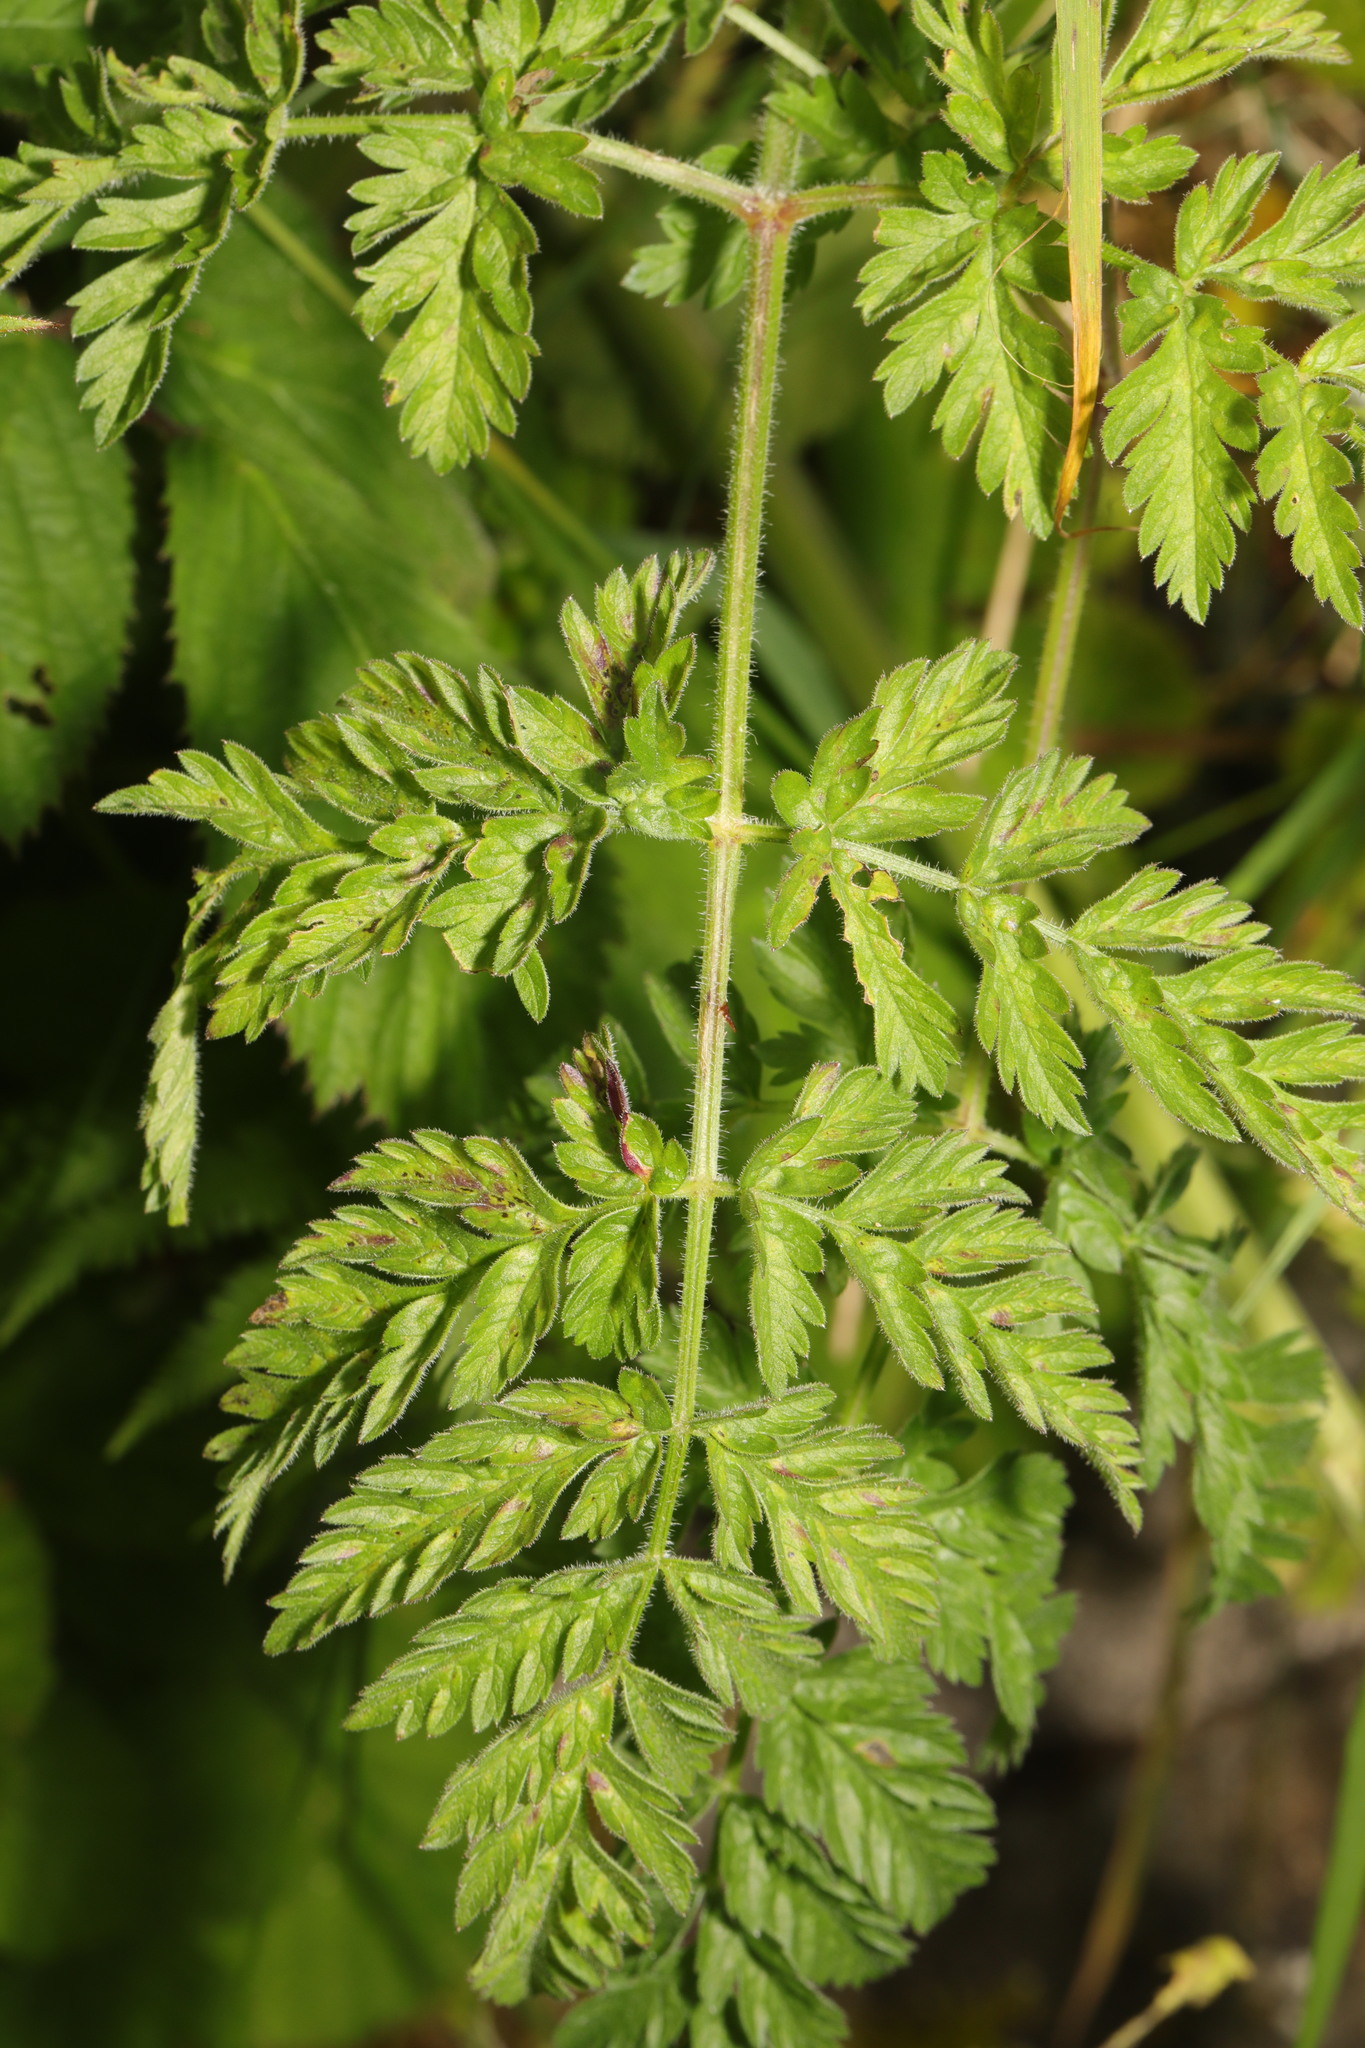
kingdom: Plantae
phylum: Tracheophyta
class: Magnoliopsida
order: Apiales
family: Apiaceae
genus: Anthriscus
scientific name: Anthriscus sylvestris
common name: Cow parsley
